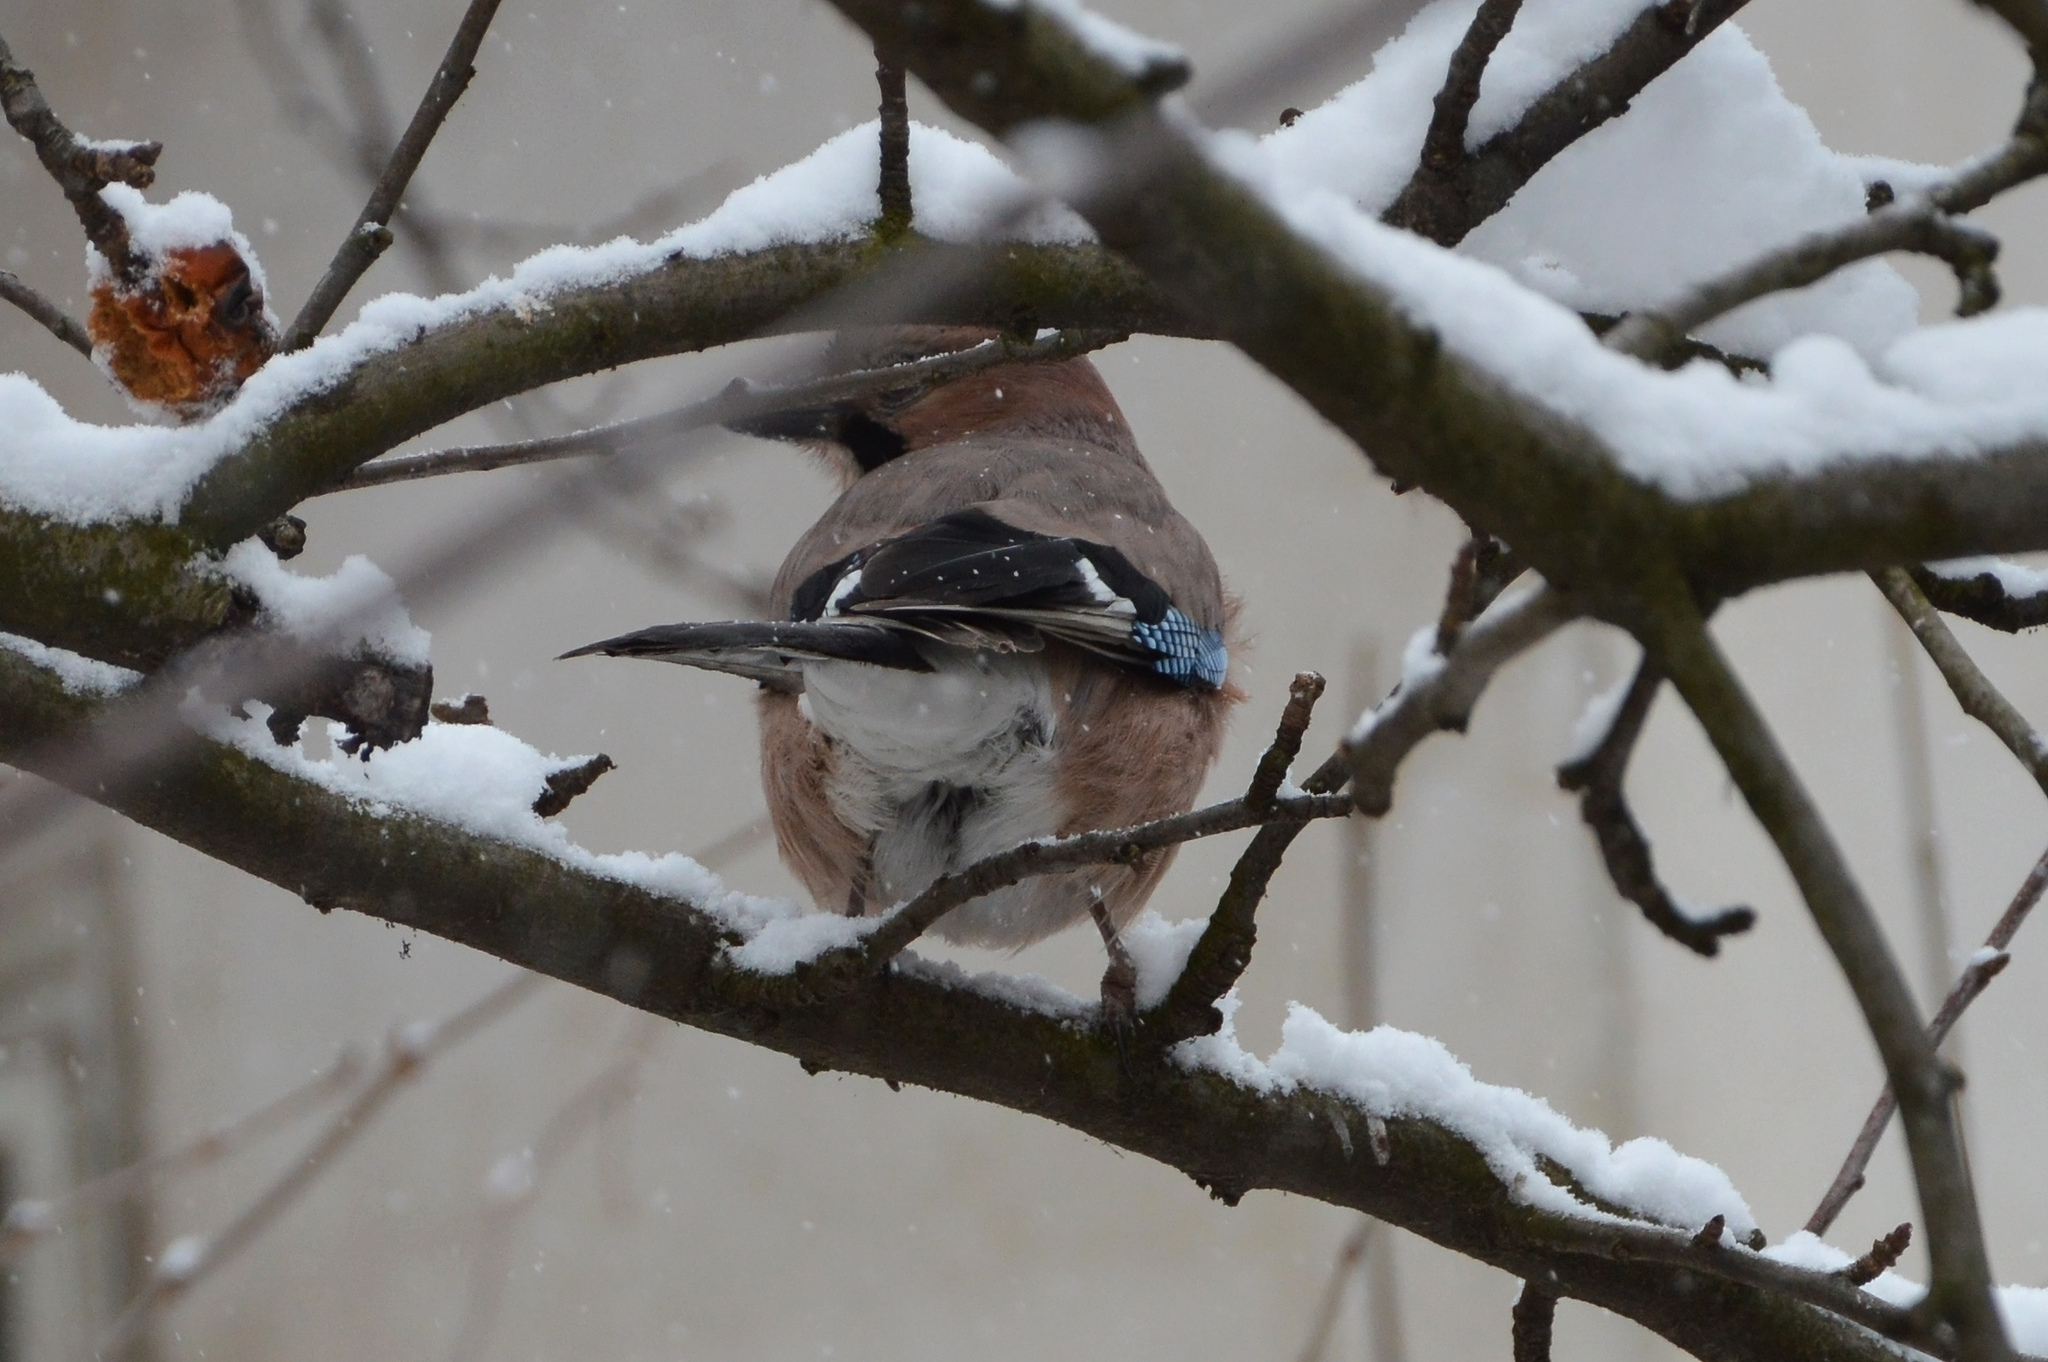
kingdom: Animalia
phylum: Chordata
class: Aves
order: Passeriformes
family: Corvidae
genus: Garrulus
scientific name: Garrulus glandarius
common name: Eurasian jay
